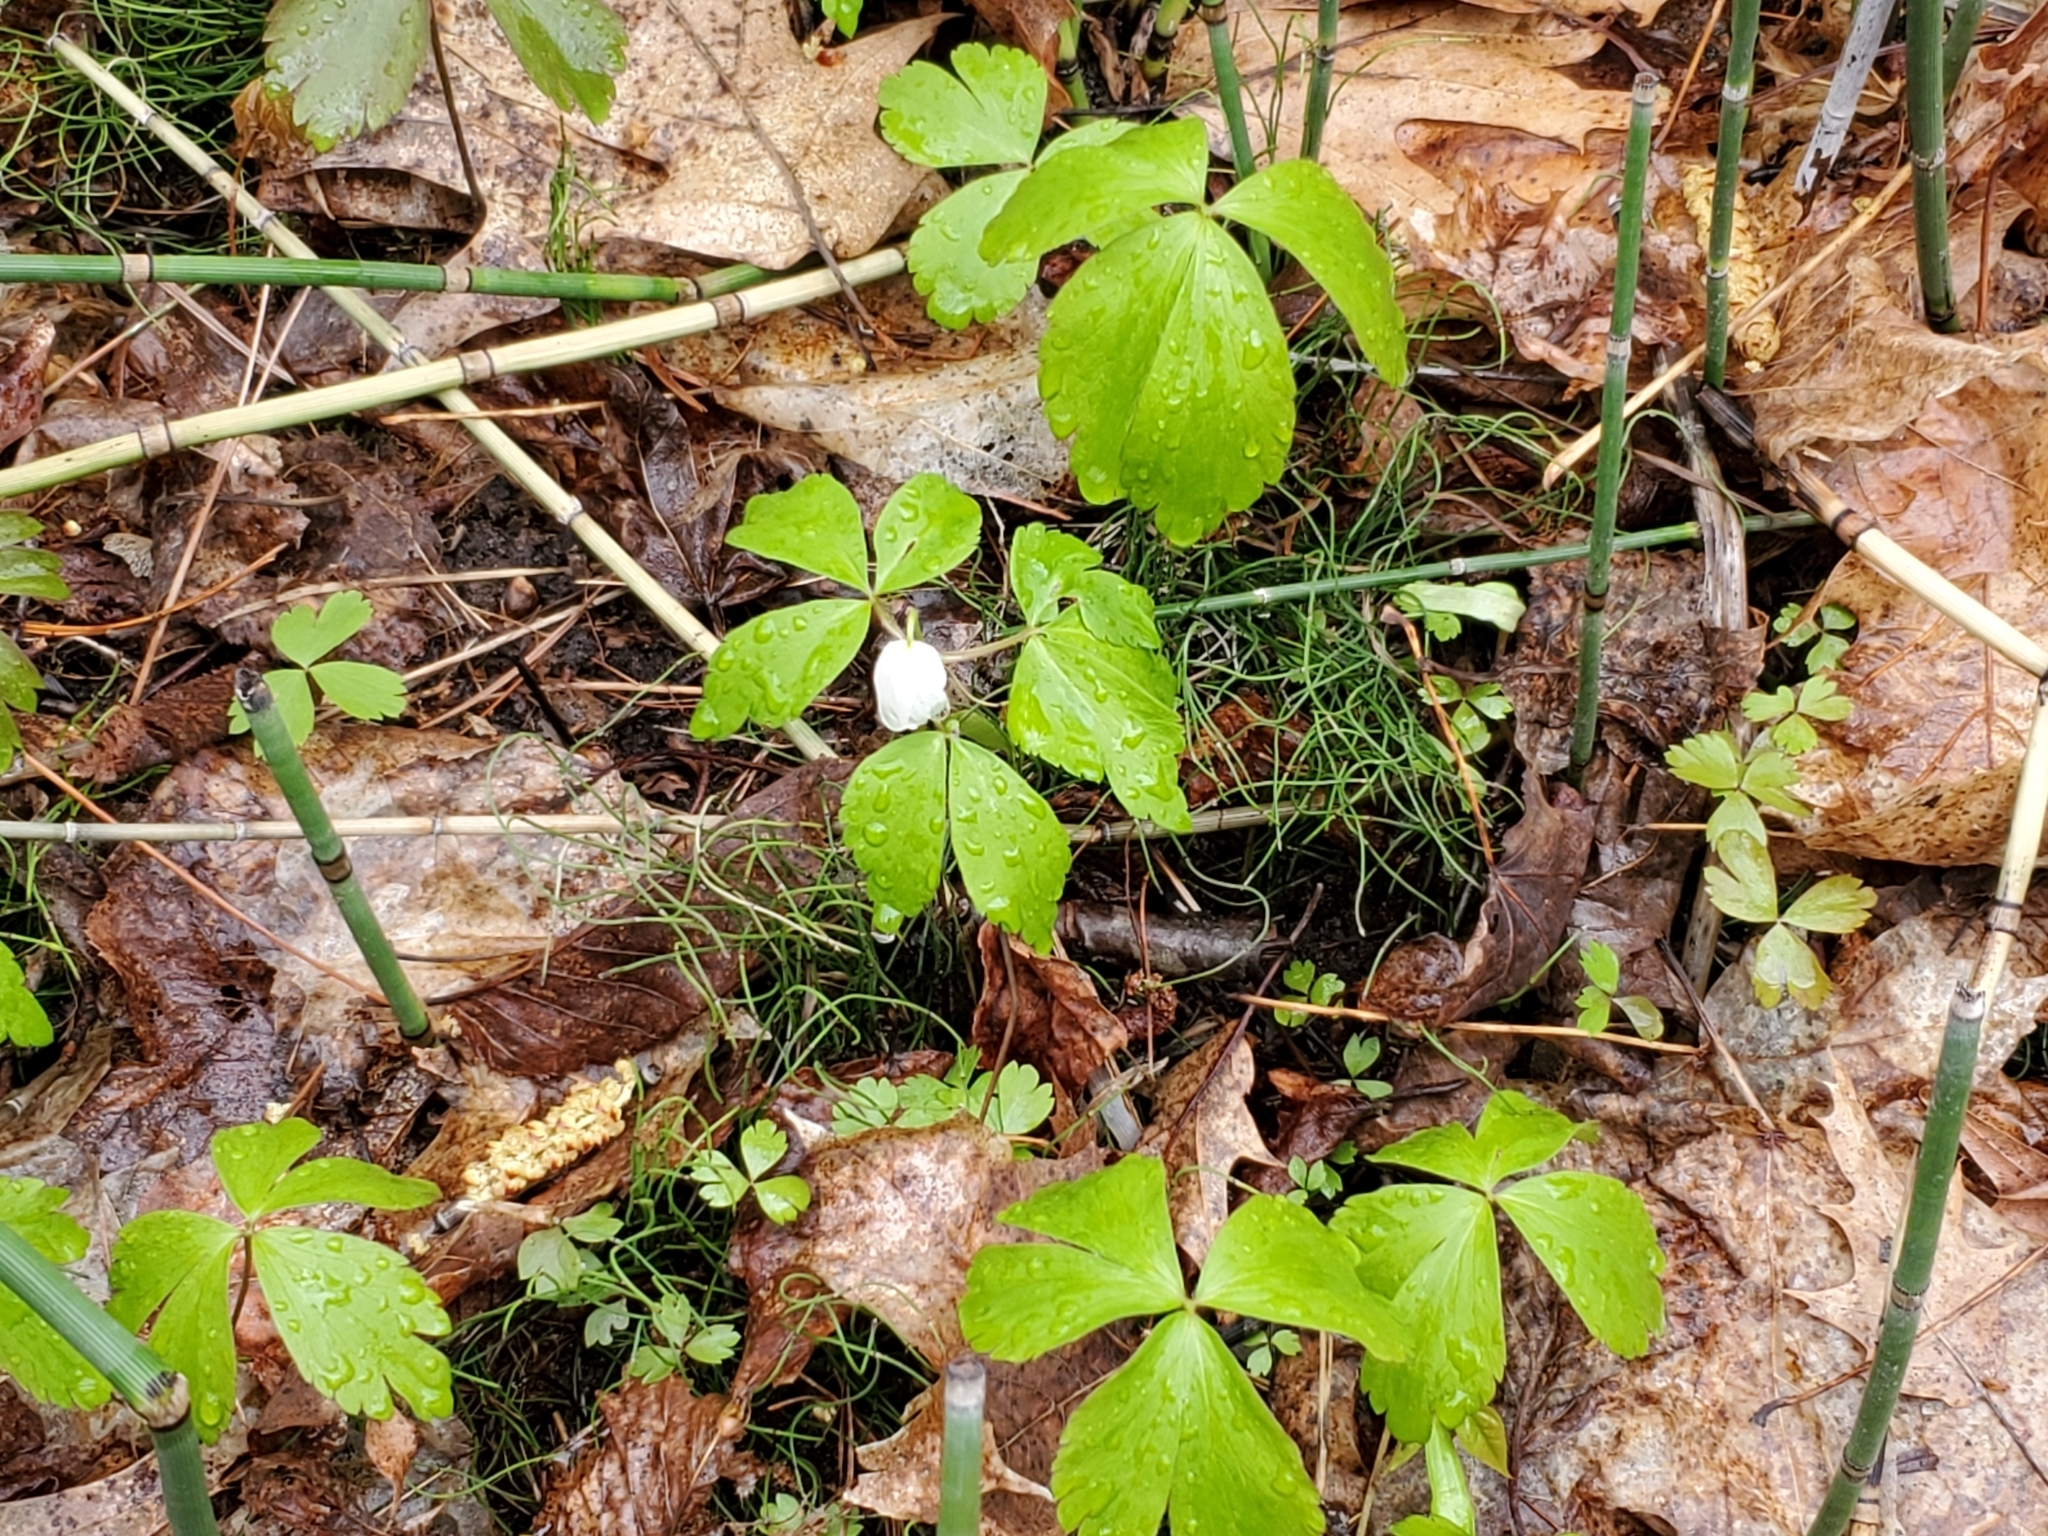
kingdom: Plantae
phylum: Tracheophyta
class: Magnoliopsida
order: Ranunculales
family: Ranunculaceae
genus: Anemone
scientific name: Anemone quinquefolia
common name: Wood anemone
